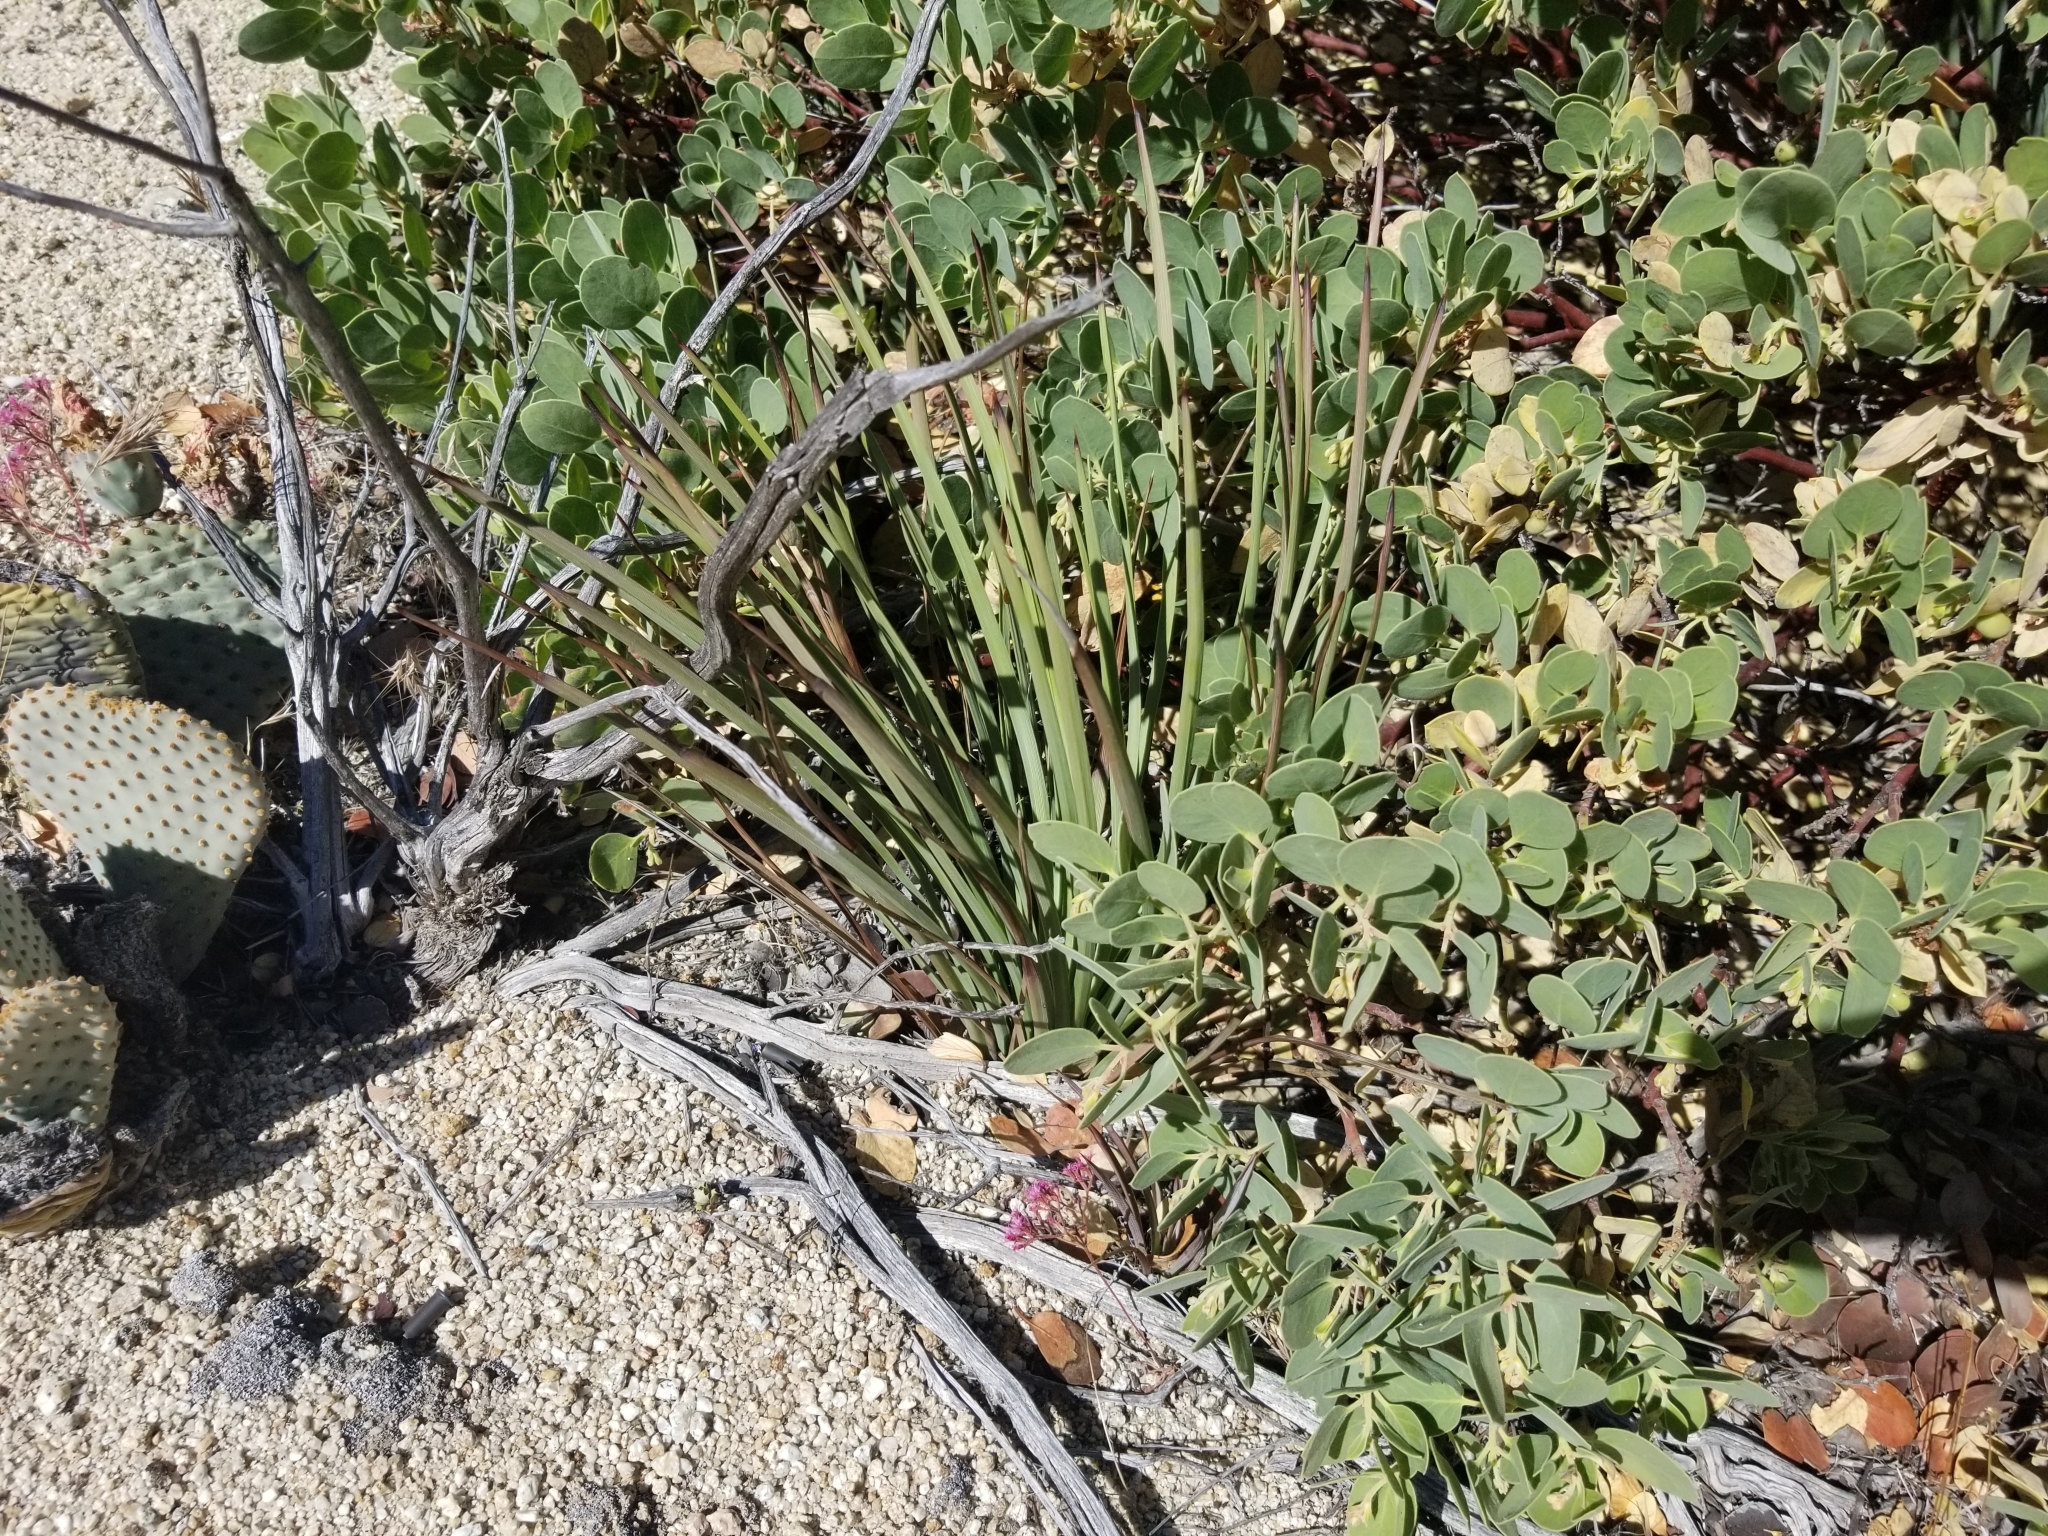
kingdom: Plantae
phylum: Tracheophyta
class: Liliopsida
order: Asparagales
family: Asparagaceae
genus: Hesperoyucca
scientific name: Hesperoyucca whipplei
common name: Our lord's-candle
